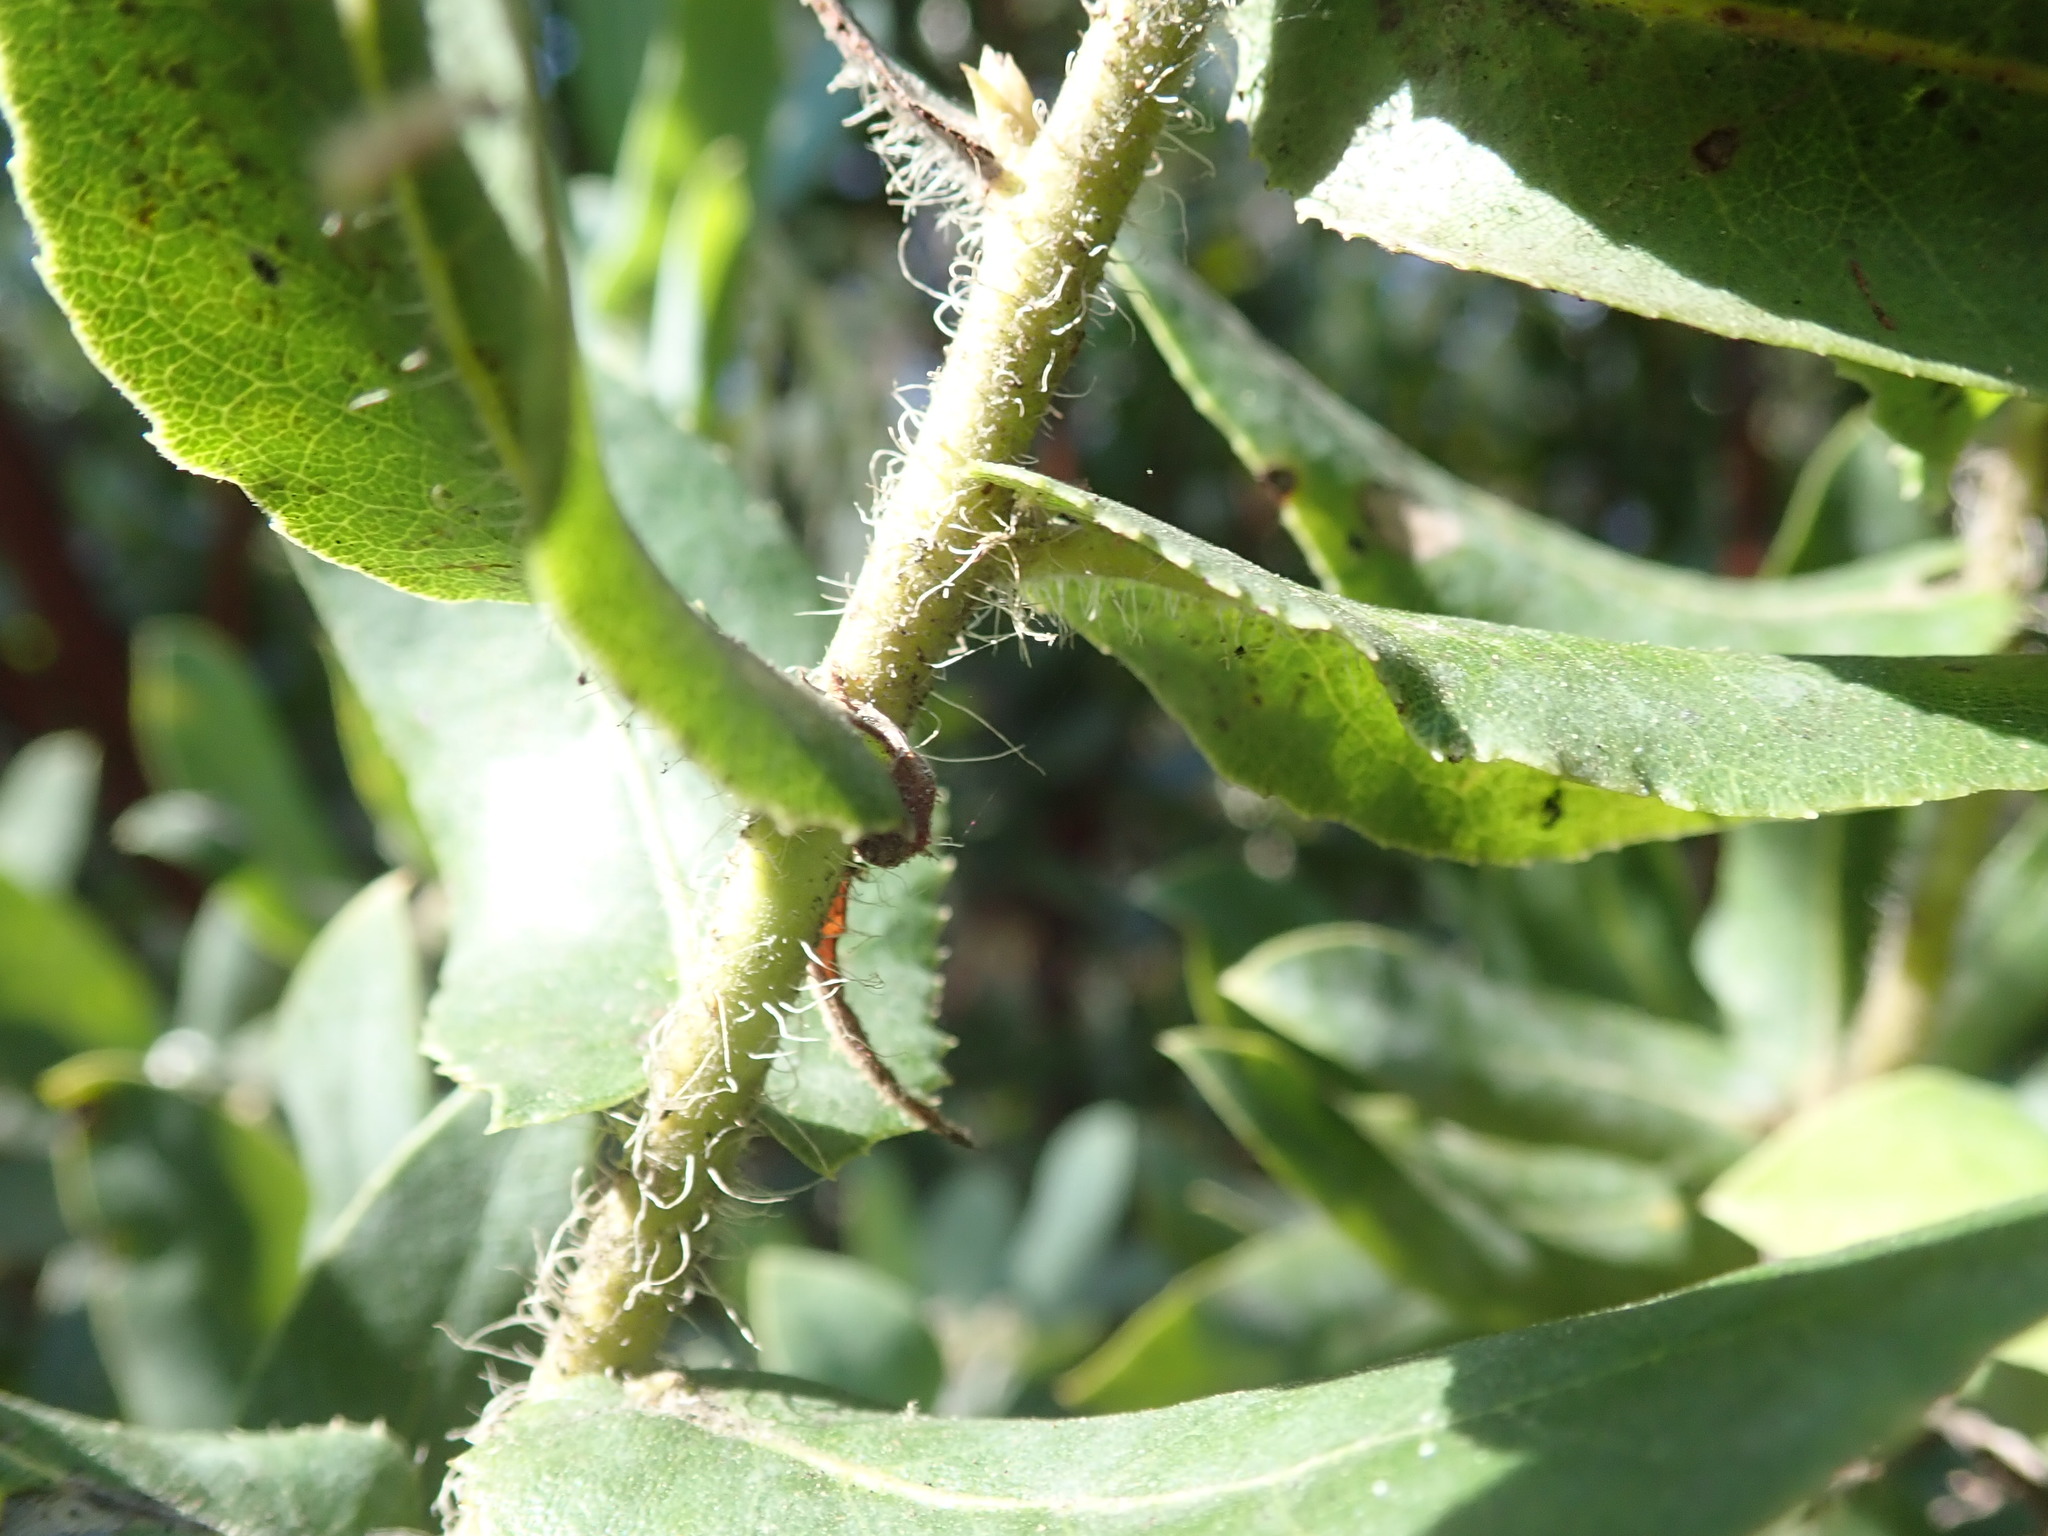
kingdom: Plantae
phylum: Tracheophyta
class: Magnoliopsida
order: Ericales
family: Ericaceae
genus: Arctostaphylos
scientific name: Arctostaphylos andersonii
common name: Santa cruz manzanita
